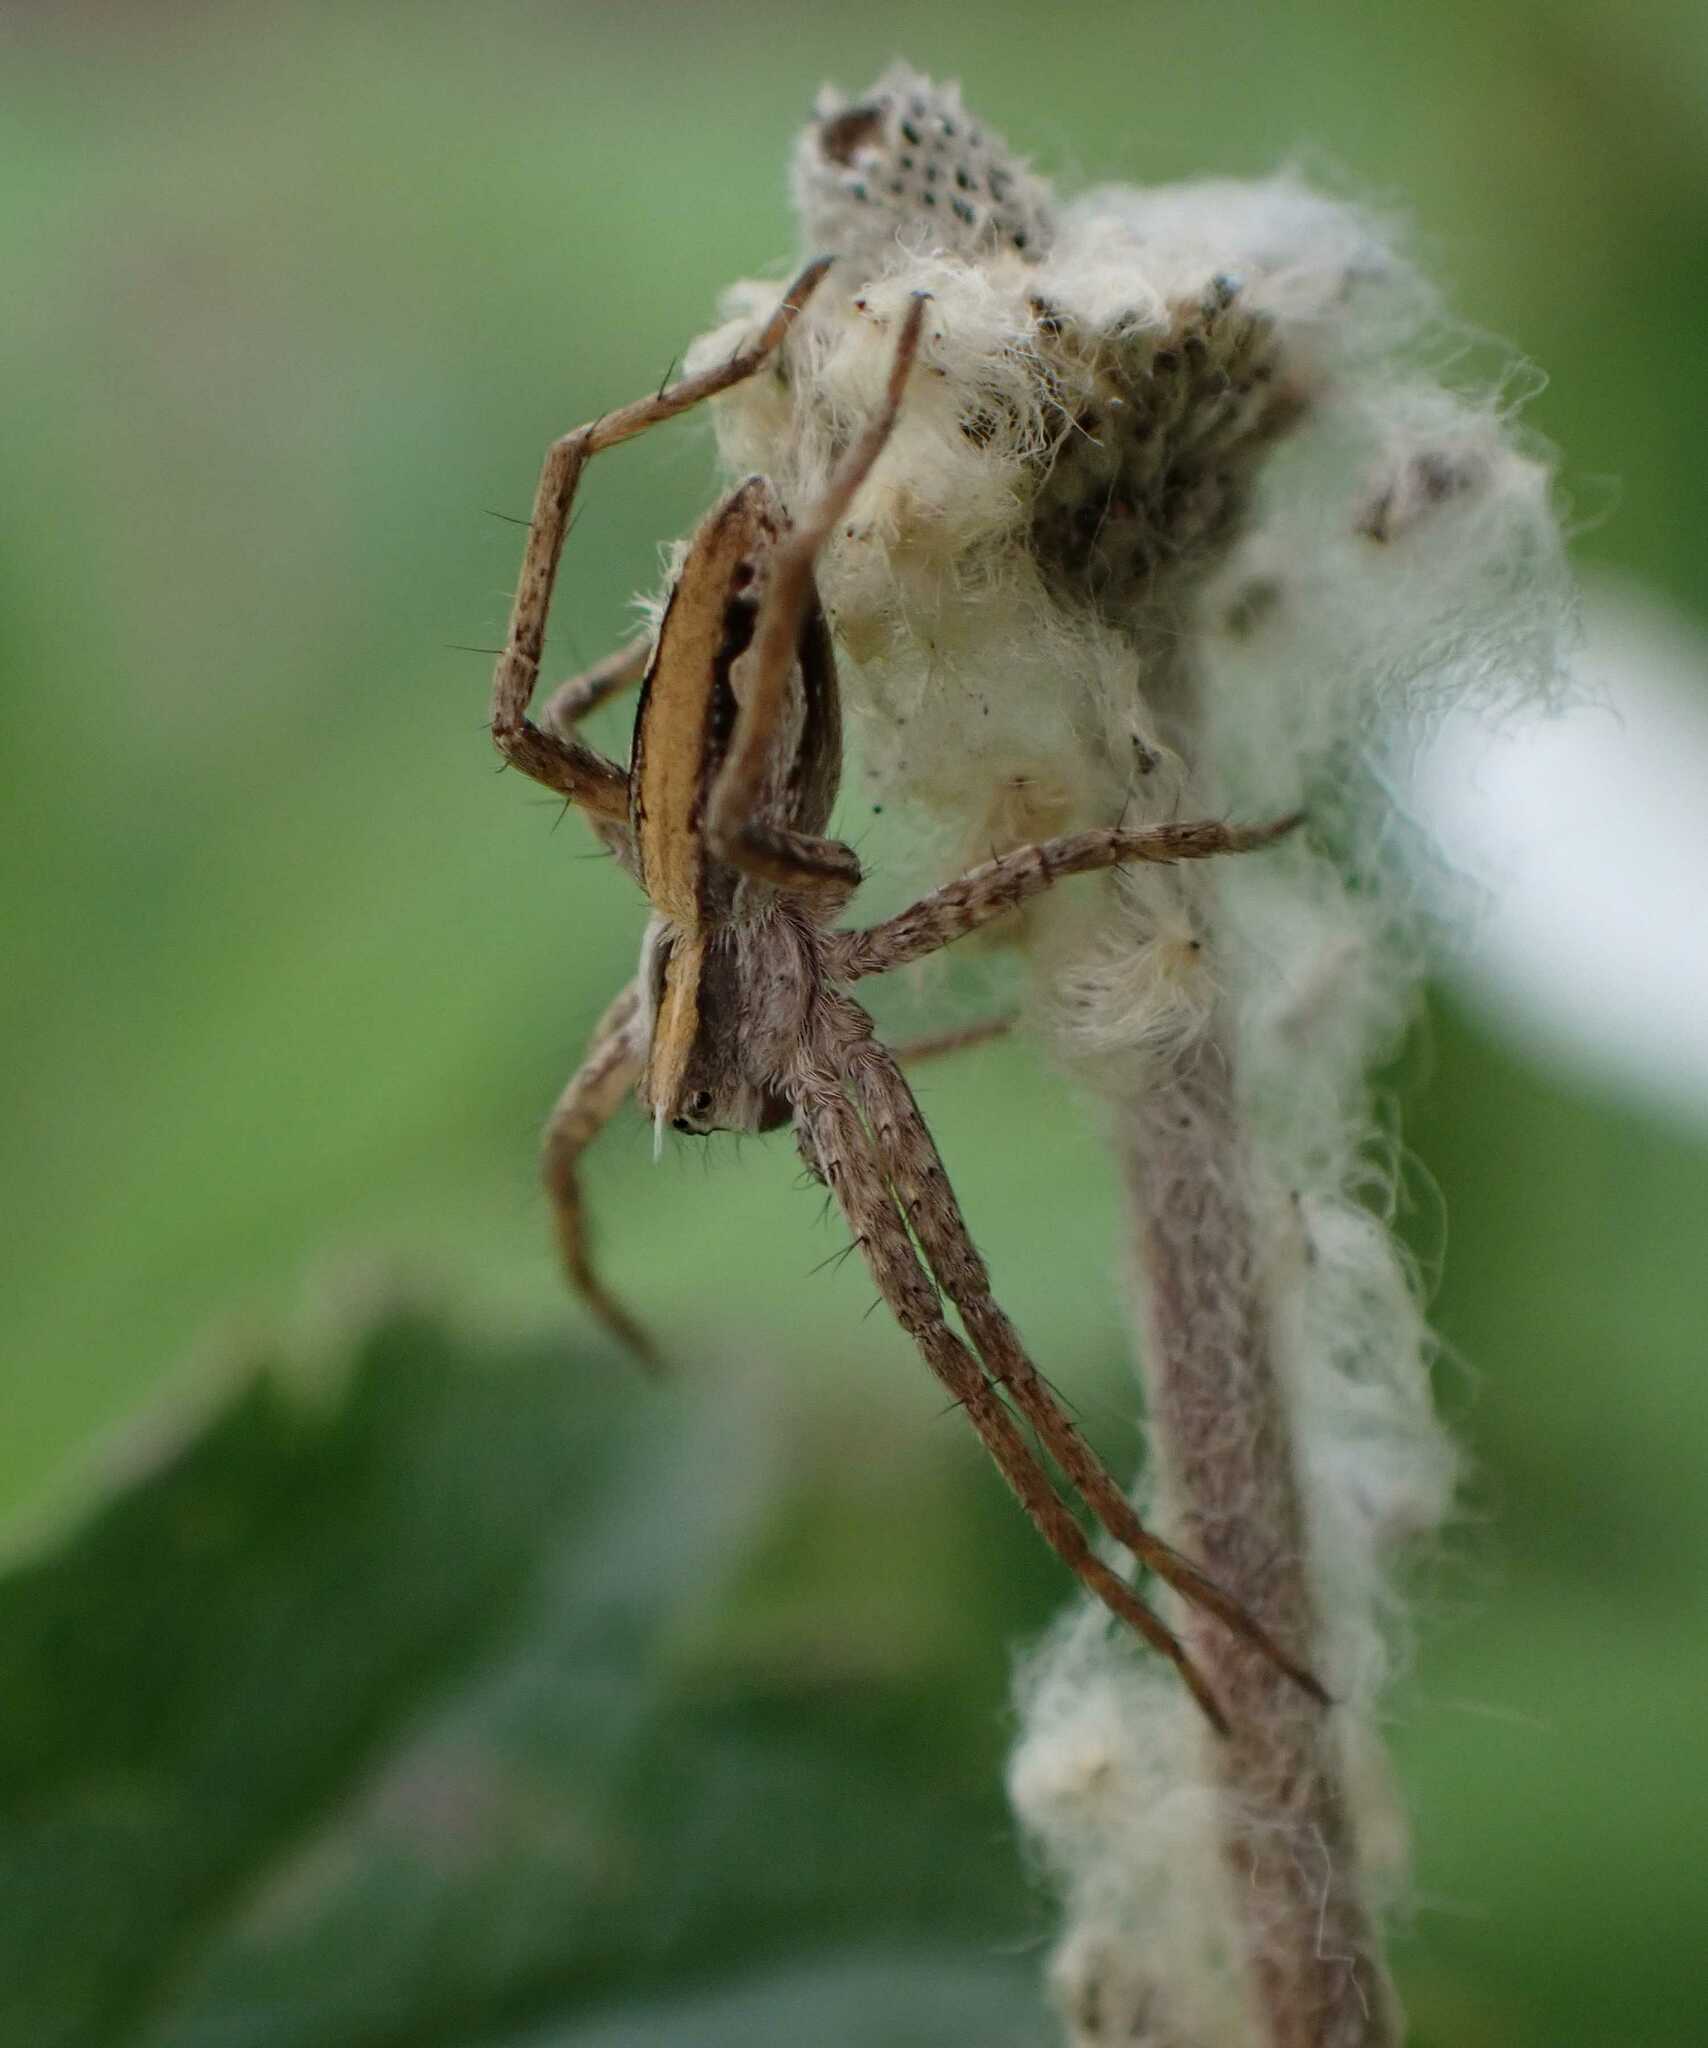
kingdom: Animalia
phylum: Arthropoda
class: Arachnida
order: Araneae
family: Pisauridae
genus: Pisaura
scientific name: Pisaura mirabilis
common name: Tent spider
